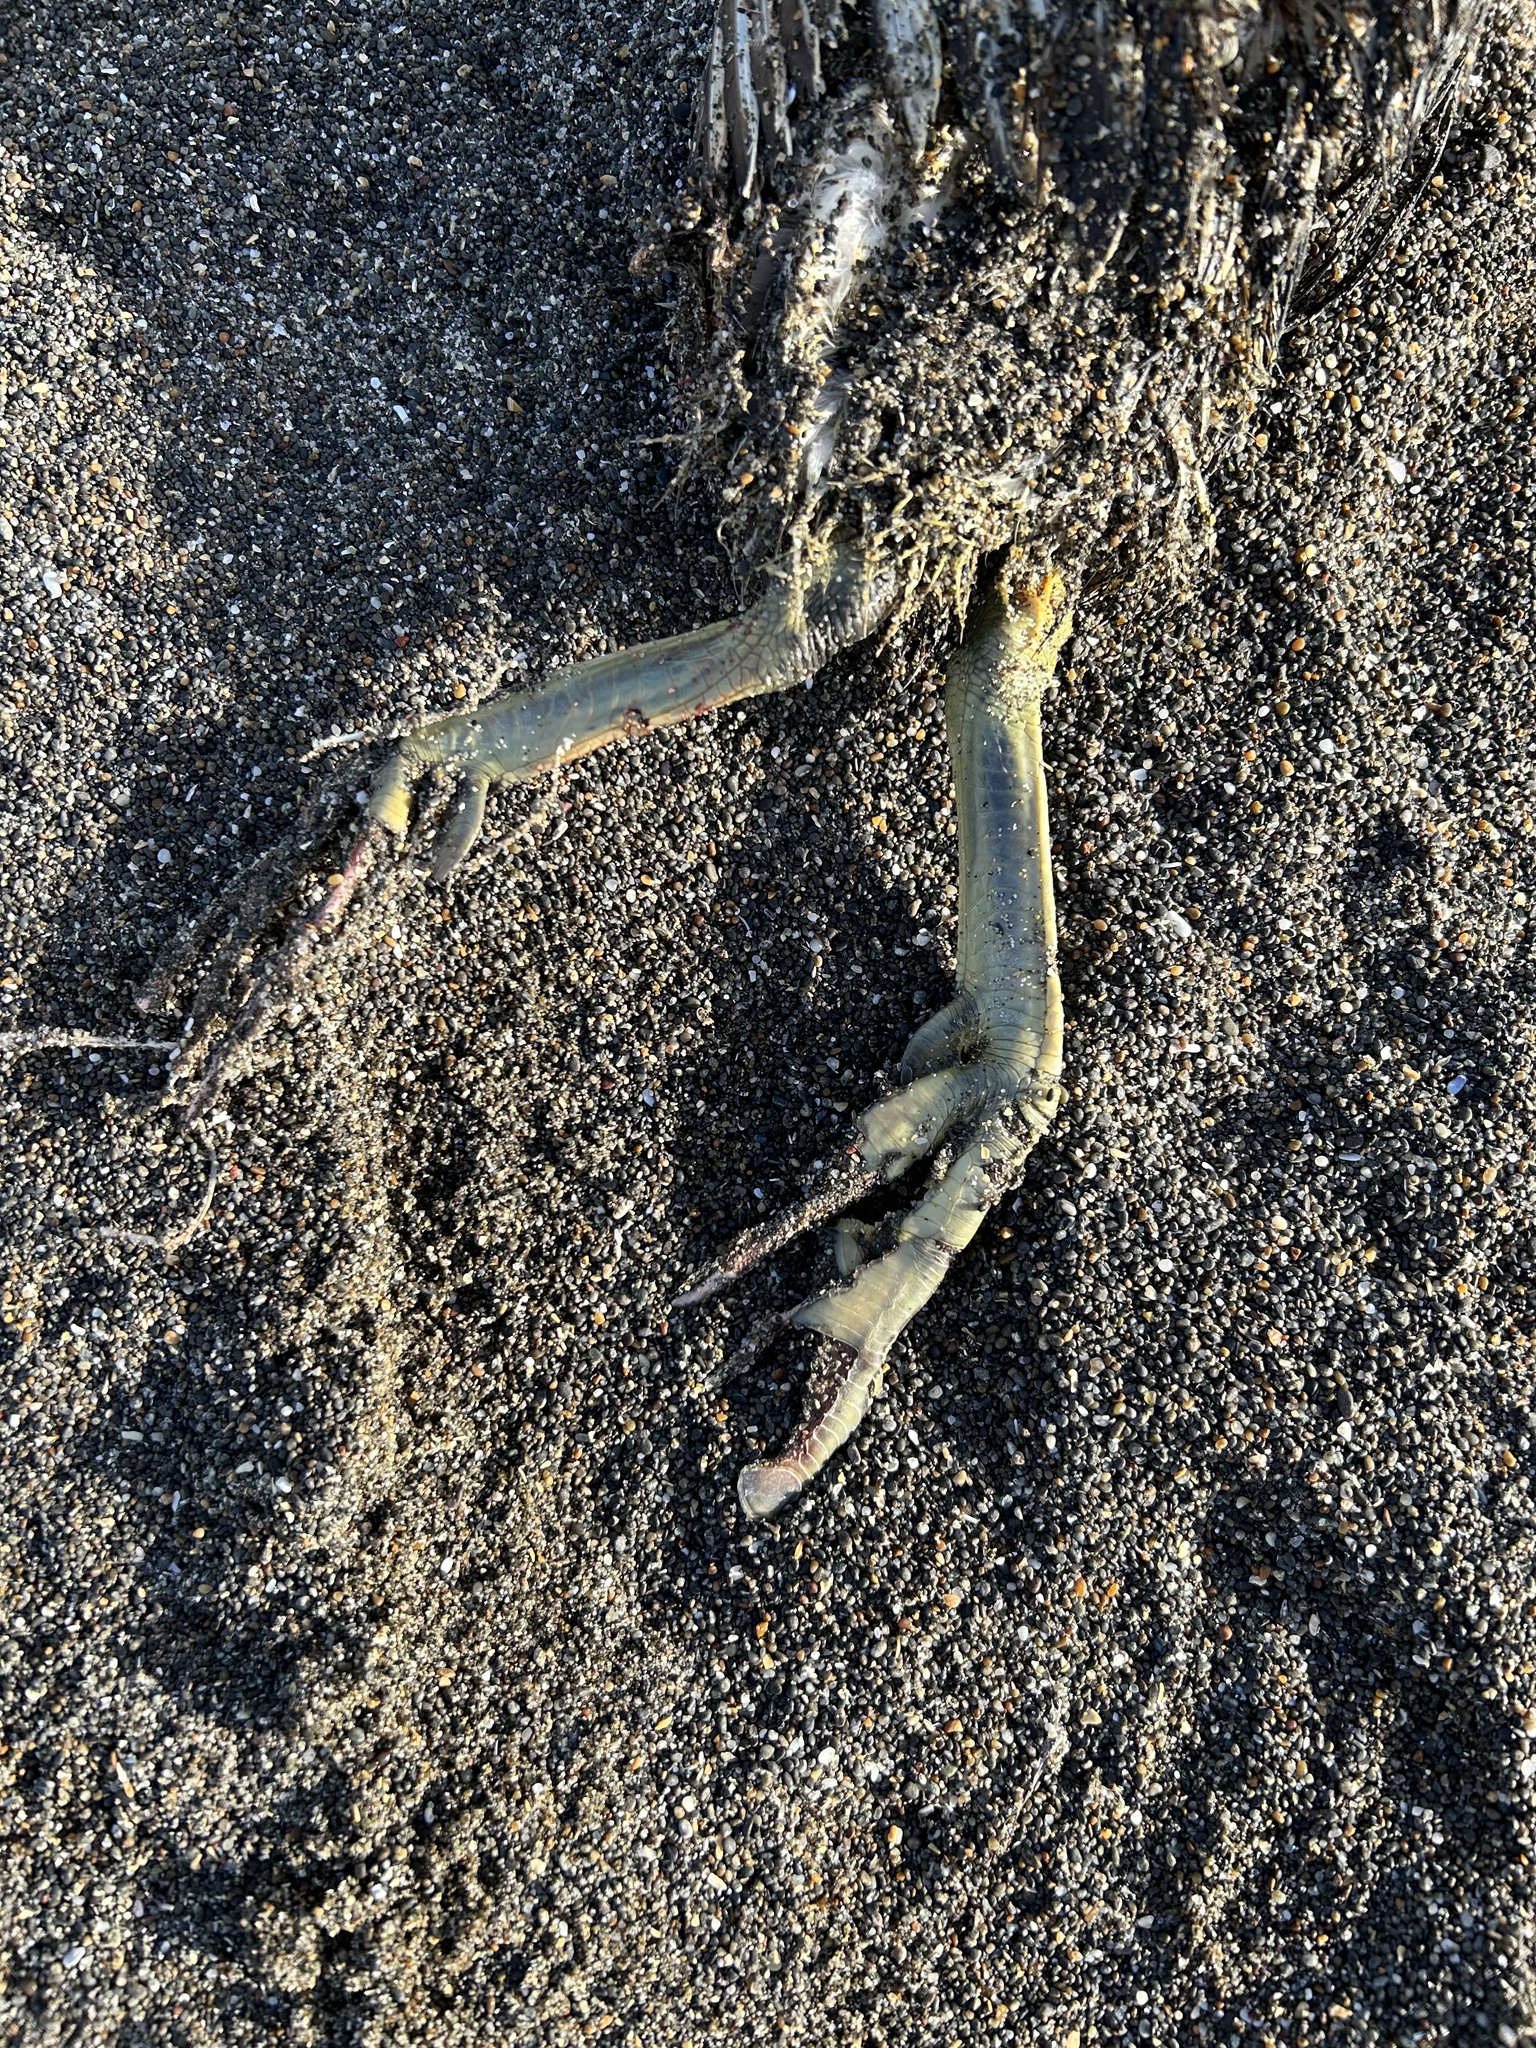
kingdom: Animalia
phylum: Chordata
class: Aves
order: Podicipediformes
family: Podicipedidae
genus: Aechmophorus
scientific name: Aechmophorus
